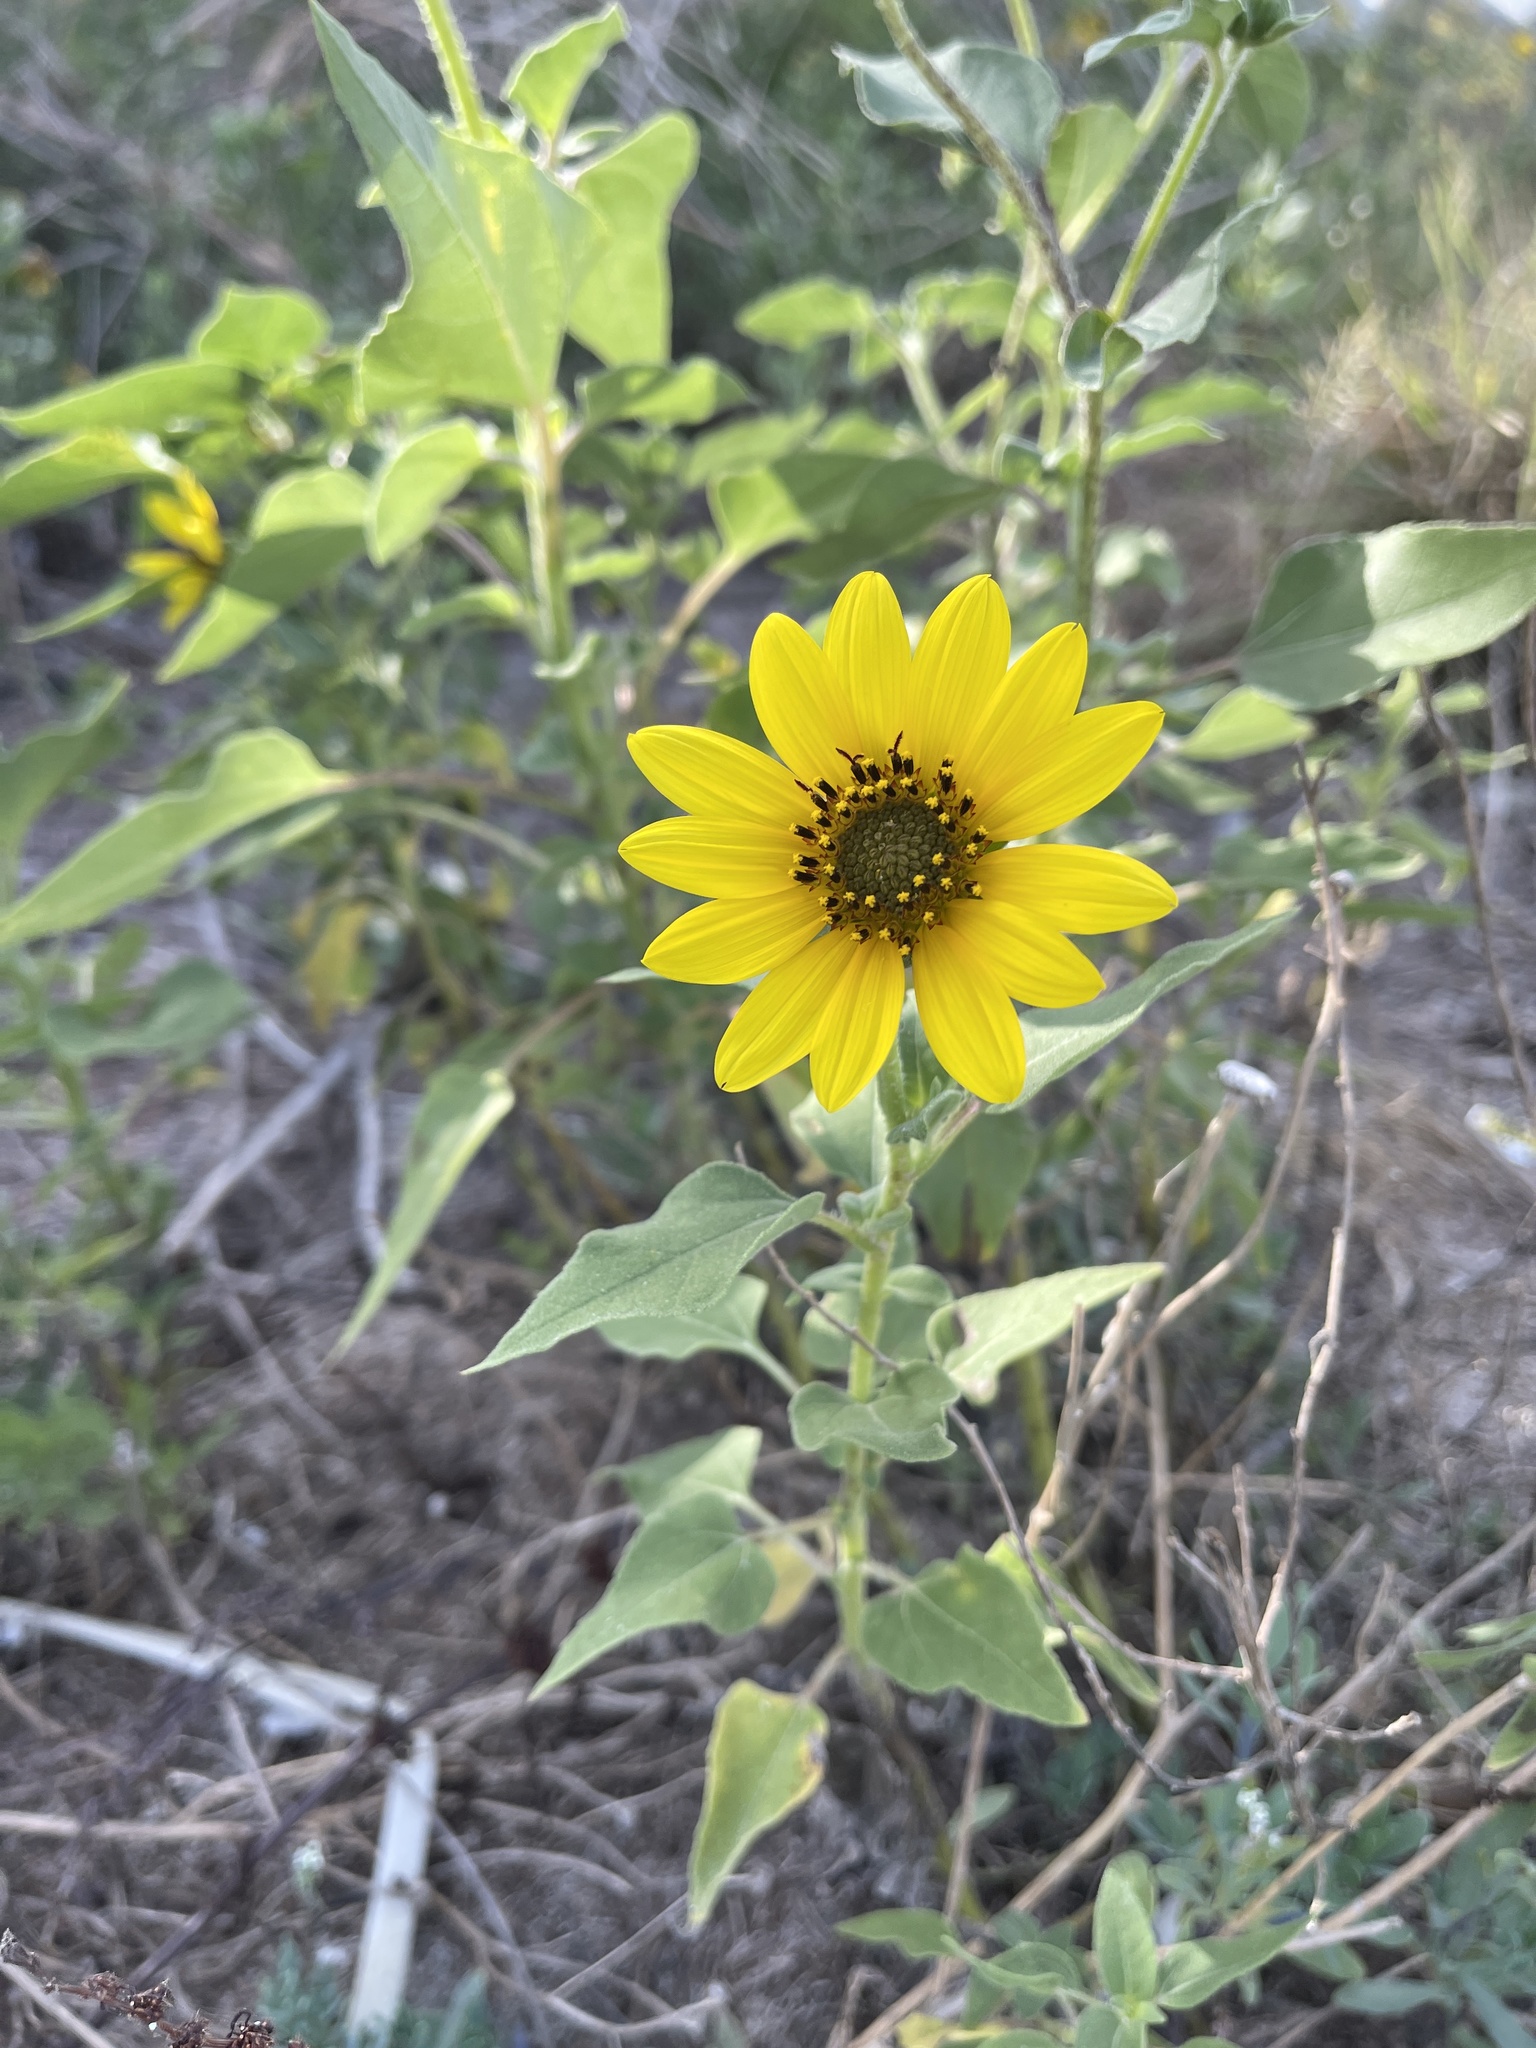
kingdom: Plantae
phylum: Tracheophyta
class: Magnoliopsida
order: Asterales
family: Asteraceae
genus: Helianthus
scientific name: Helianthus annuus
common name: Sunflower
